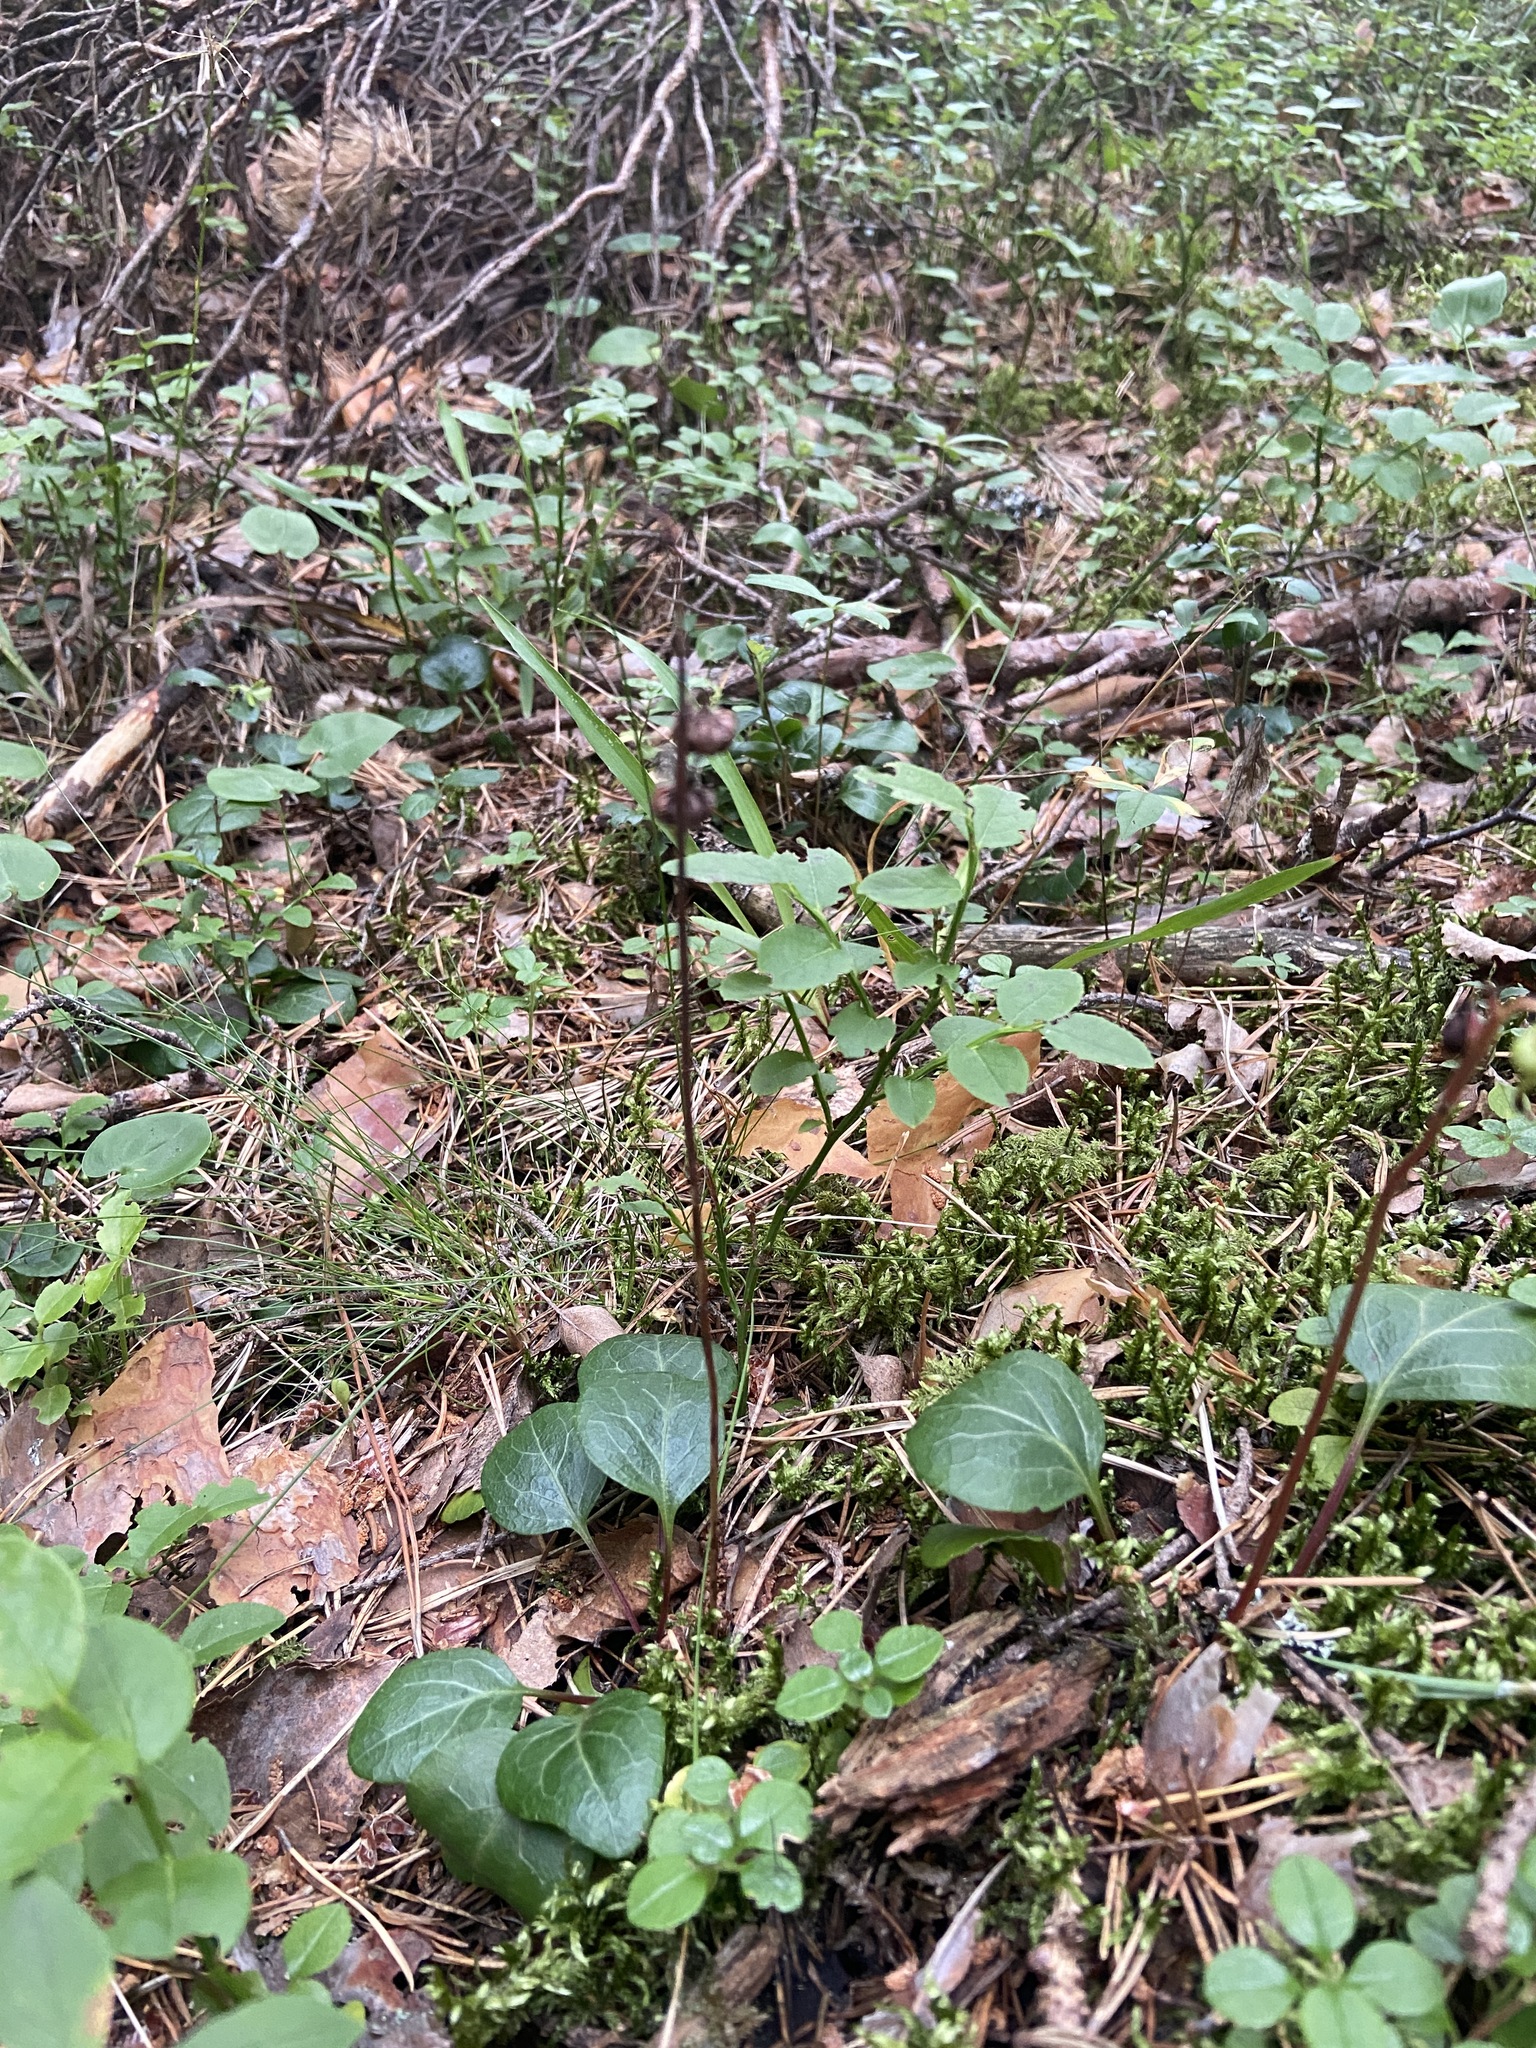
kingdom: Plantae
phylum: Tracheophyta
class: Magnoliopsida
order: Ericales
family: Ericaceae
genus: Pyrola
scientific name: Pyrola chlorantha
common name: Green wintergreen
